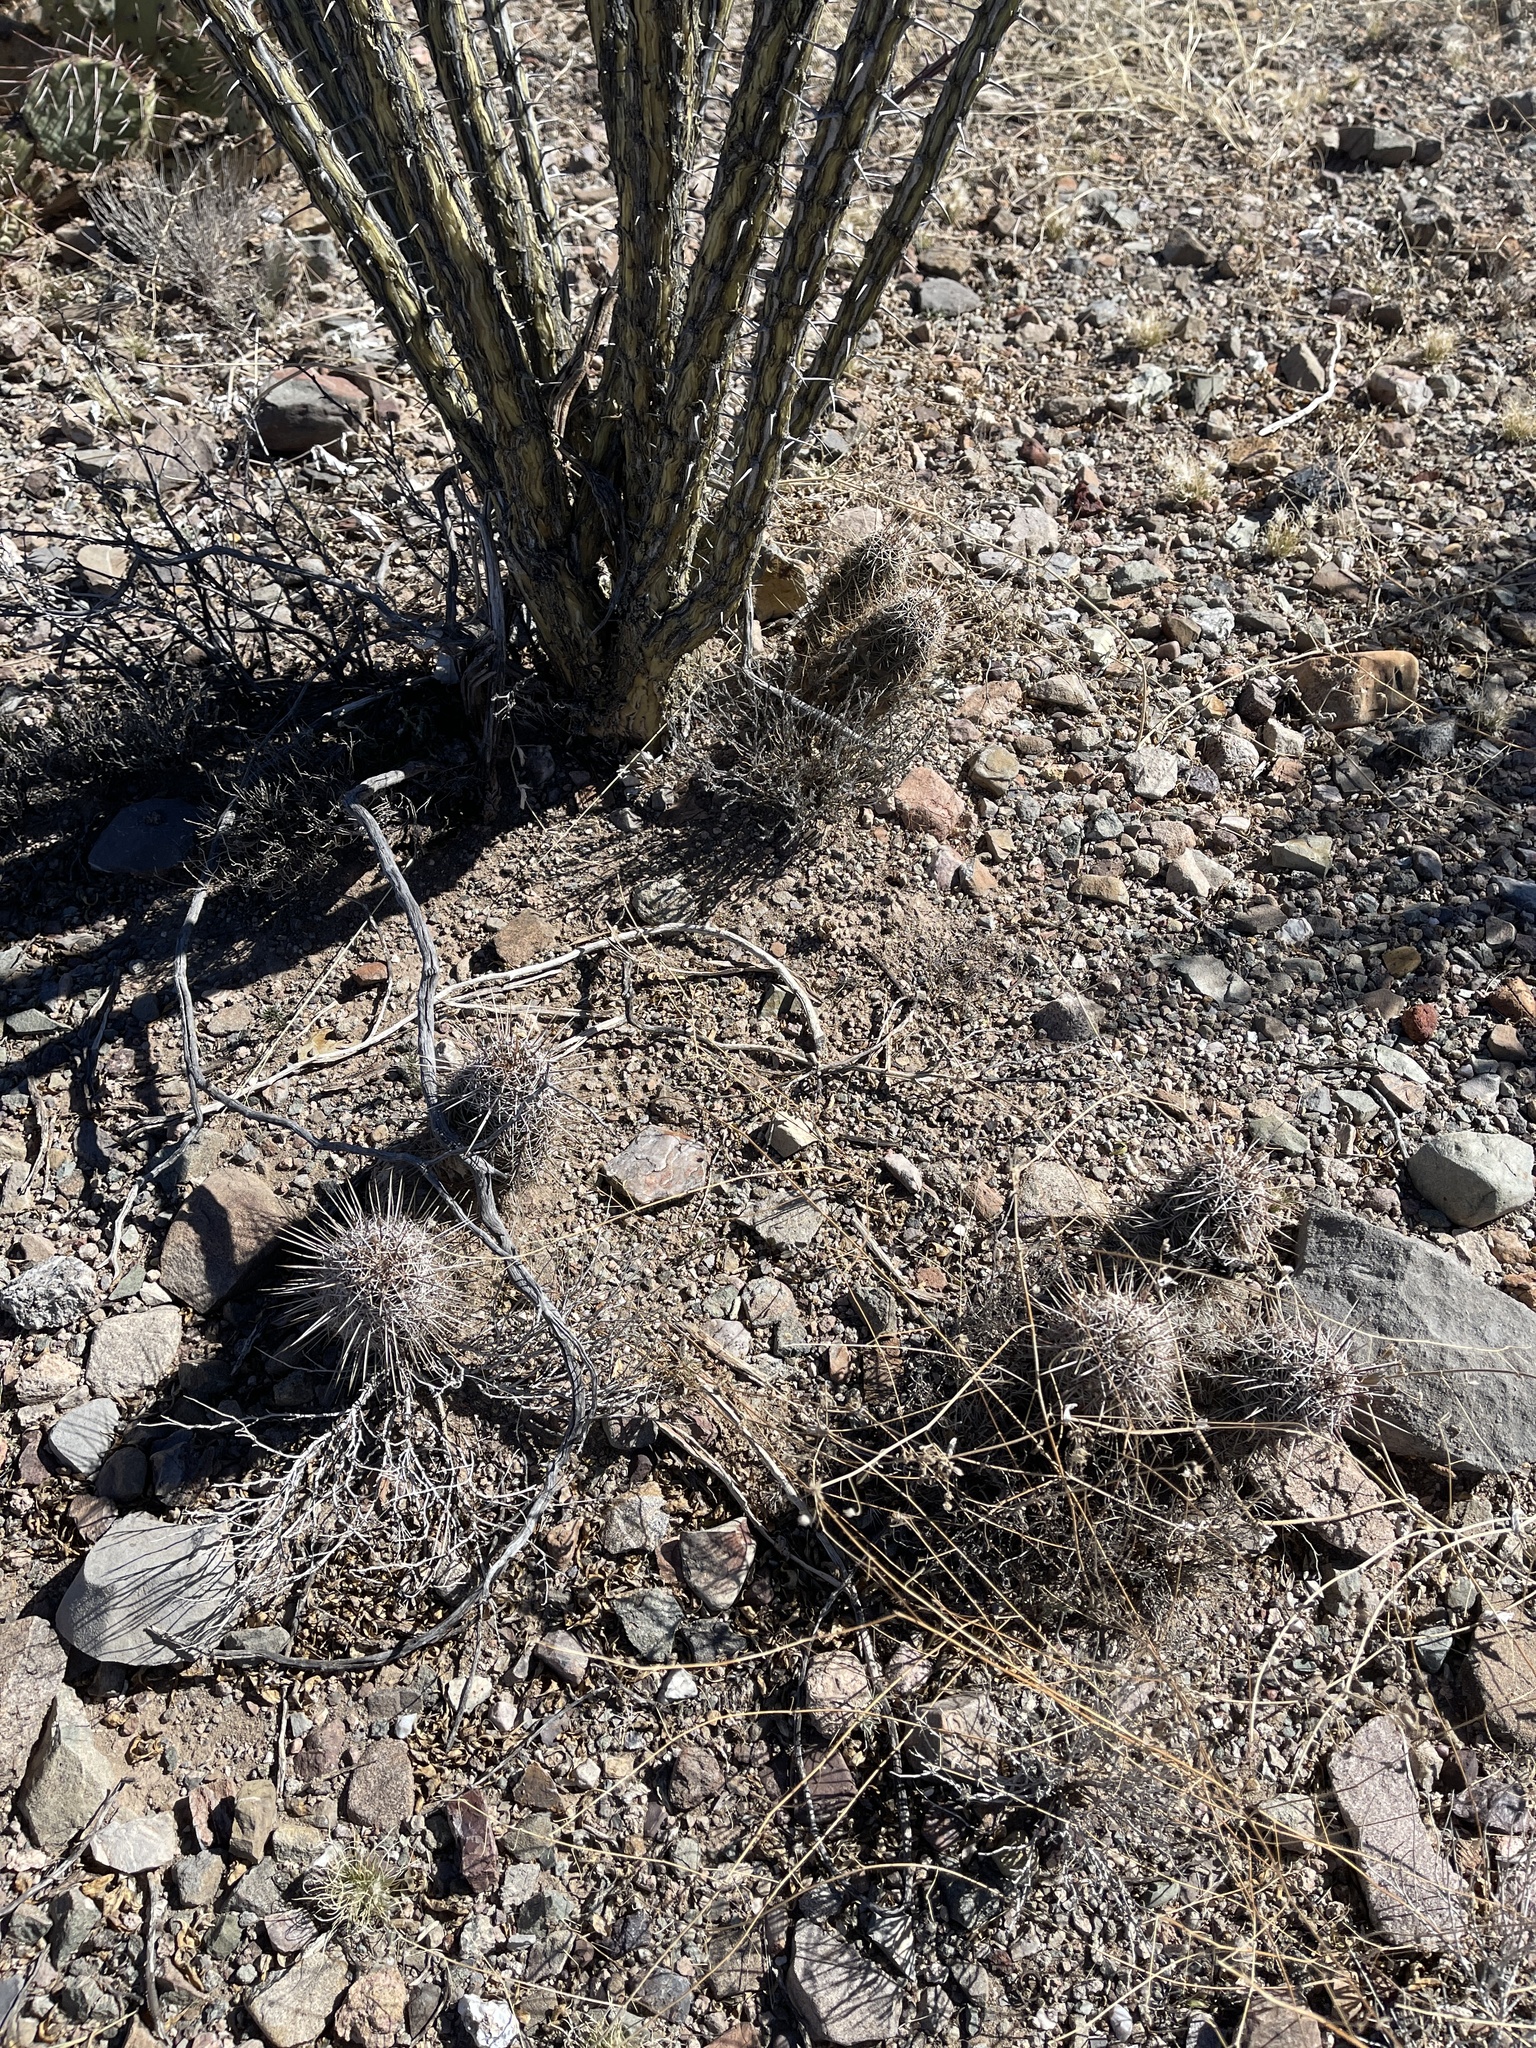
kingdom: Plantae
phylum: Tracheophyta
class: Magnoliopsida
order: Caryophyllales
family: Cactaceae
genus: Echinocereus
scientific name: Echinocereus fasciculatus
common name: Bundle hedgehog
